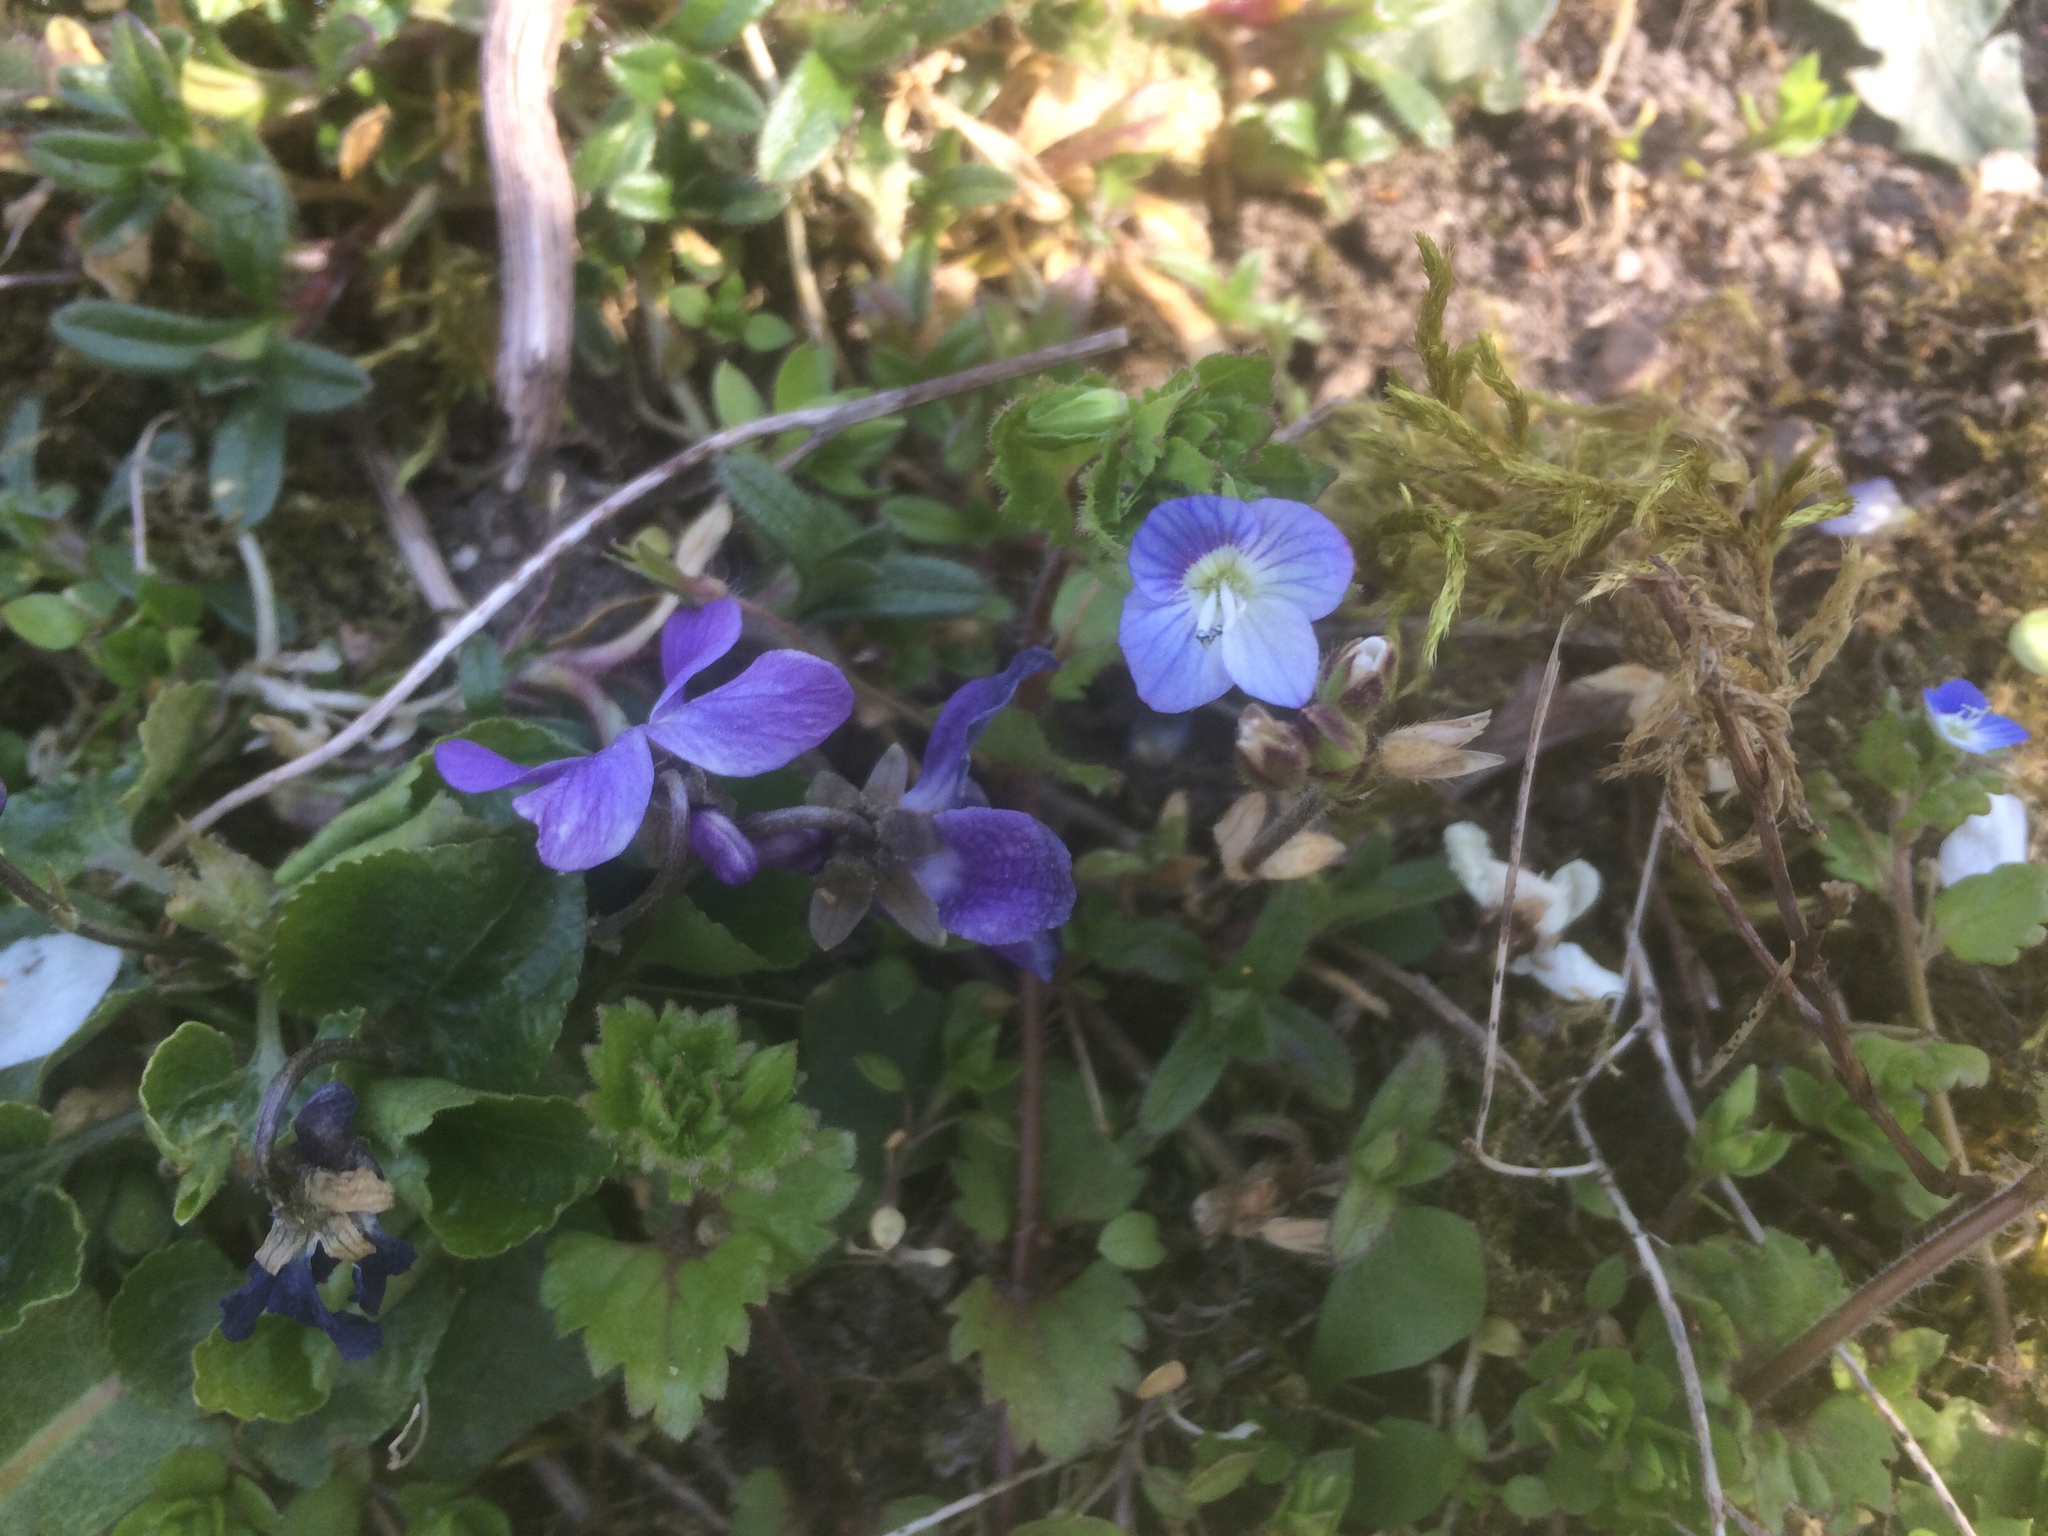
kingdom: Plantae
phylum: Tracheophyta
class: Magnoliopsida
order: Lamiales
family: Plantaginaceae
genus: Veronica
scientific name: Veronica persica
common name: Common field-speedwell
